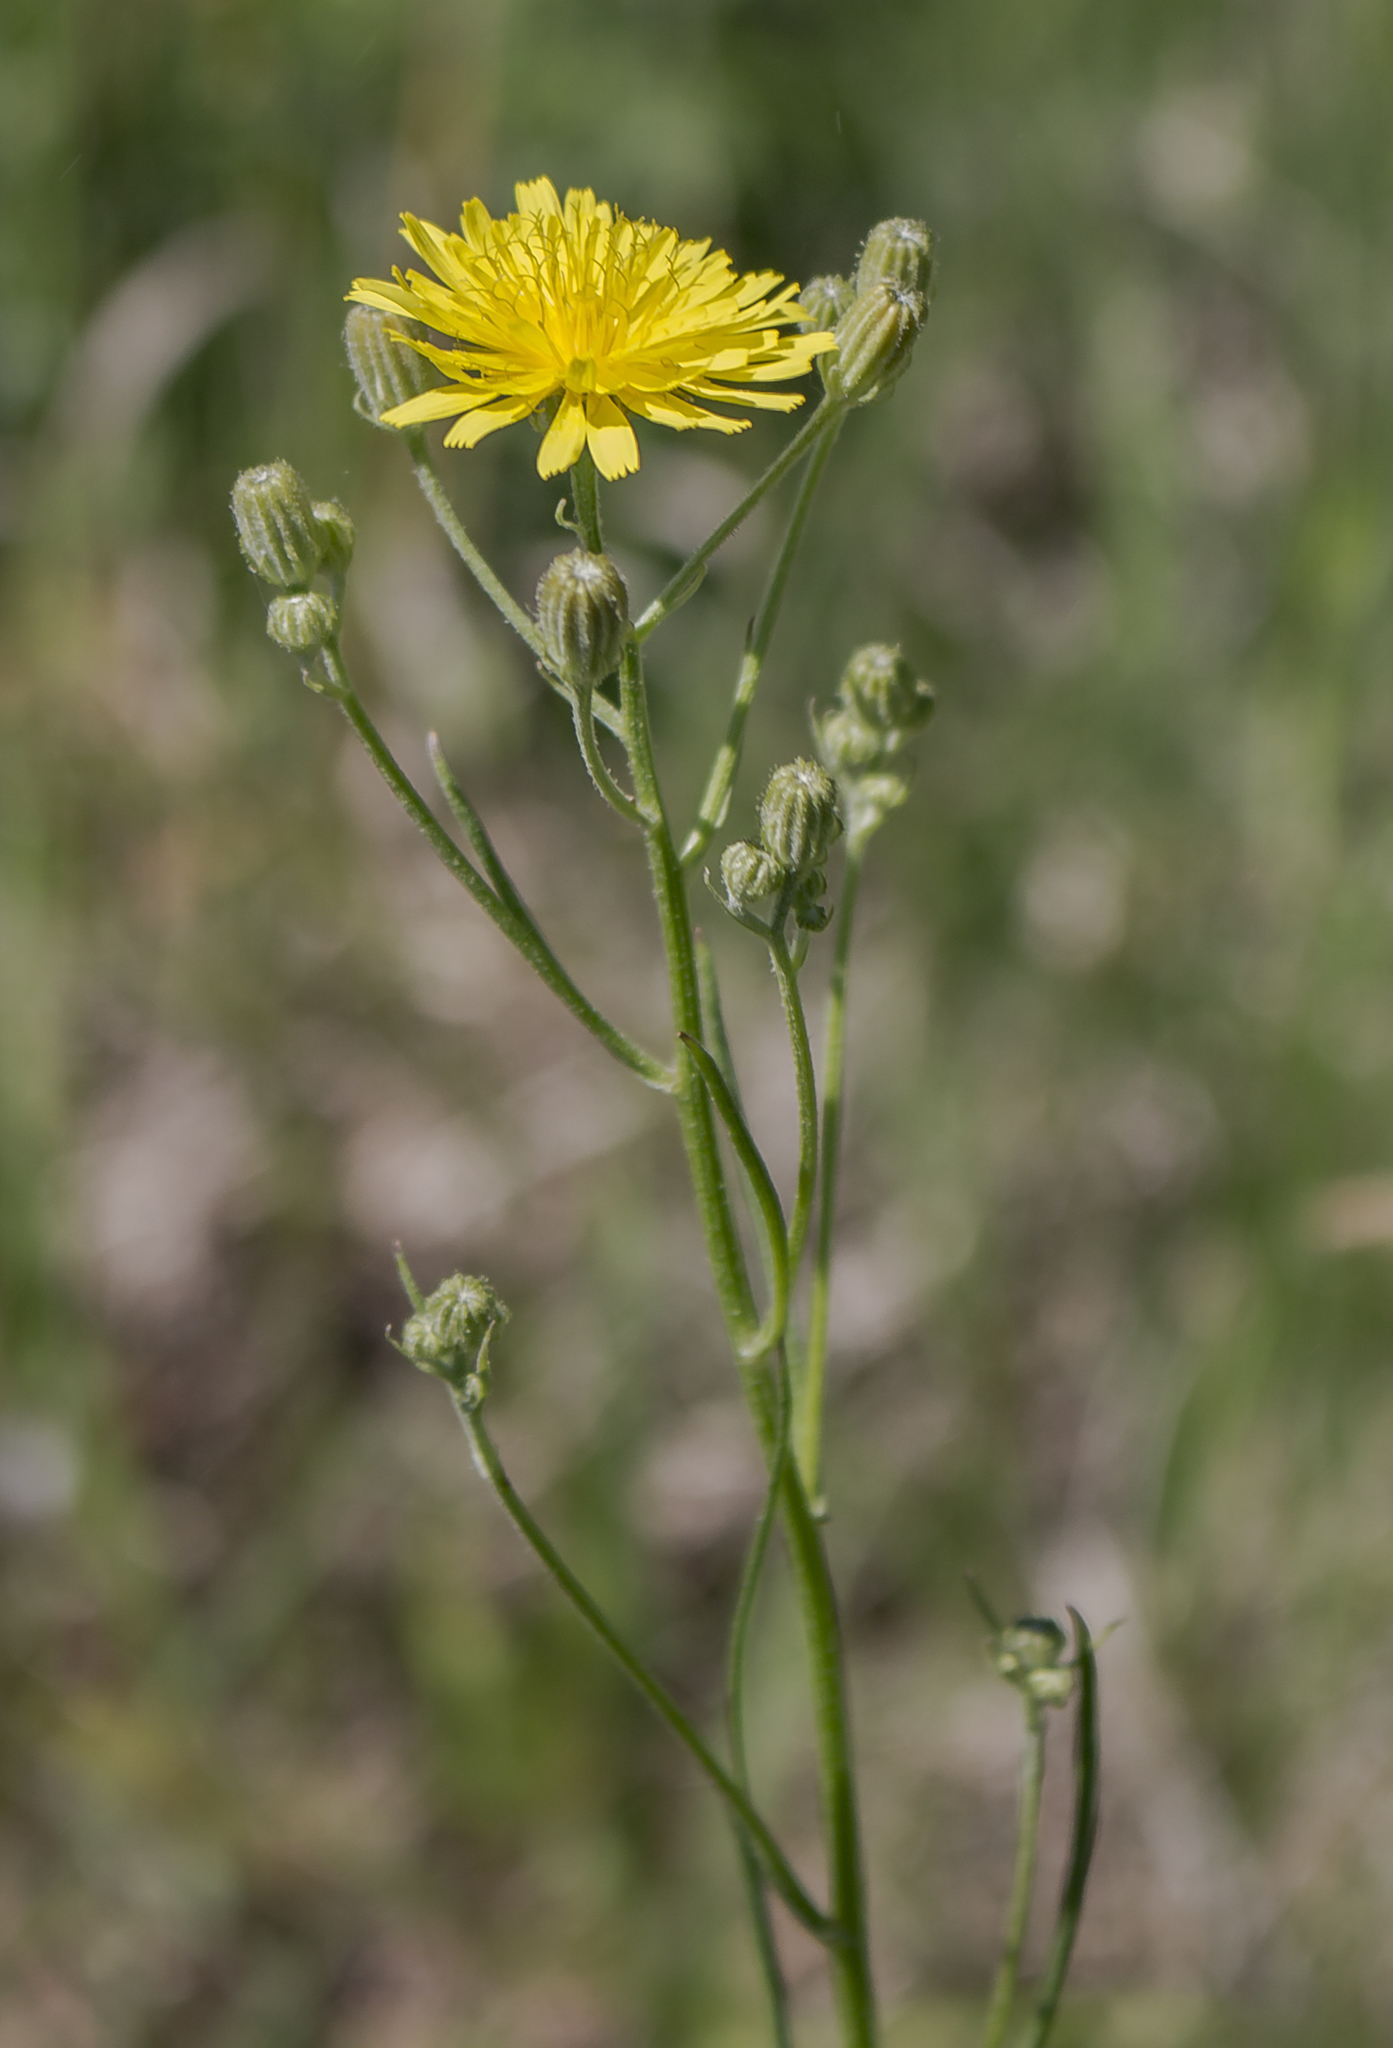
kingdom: Plantae
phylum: Tracheophyta
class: Magnoliopsida
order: Asterales
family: Asteraceae
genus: Crepis
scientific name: Crepis tectorum
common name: Narrow-leaved hawk's-beard
